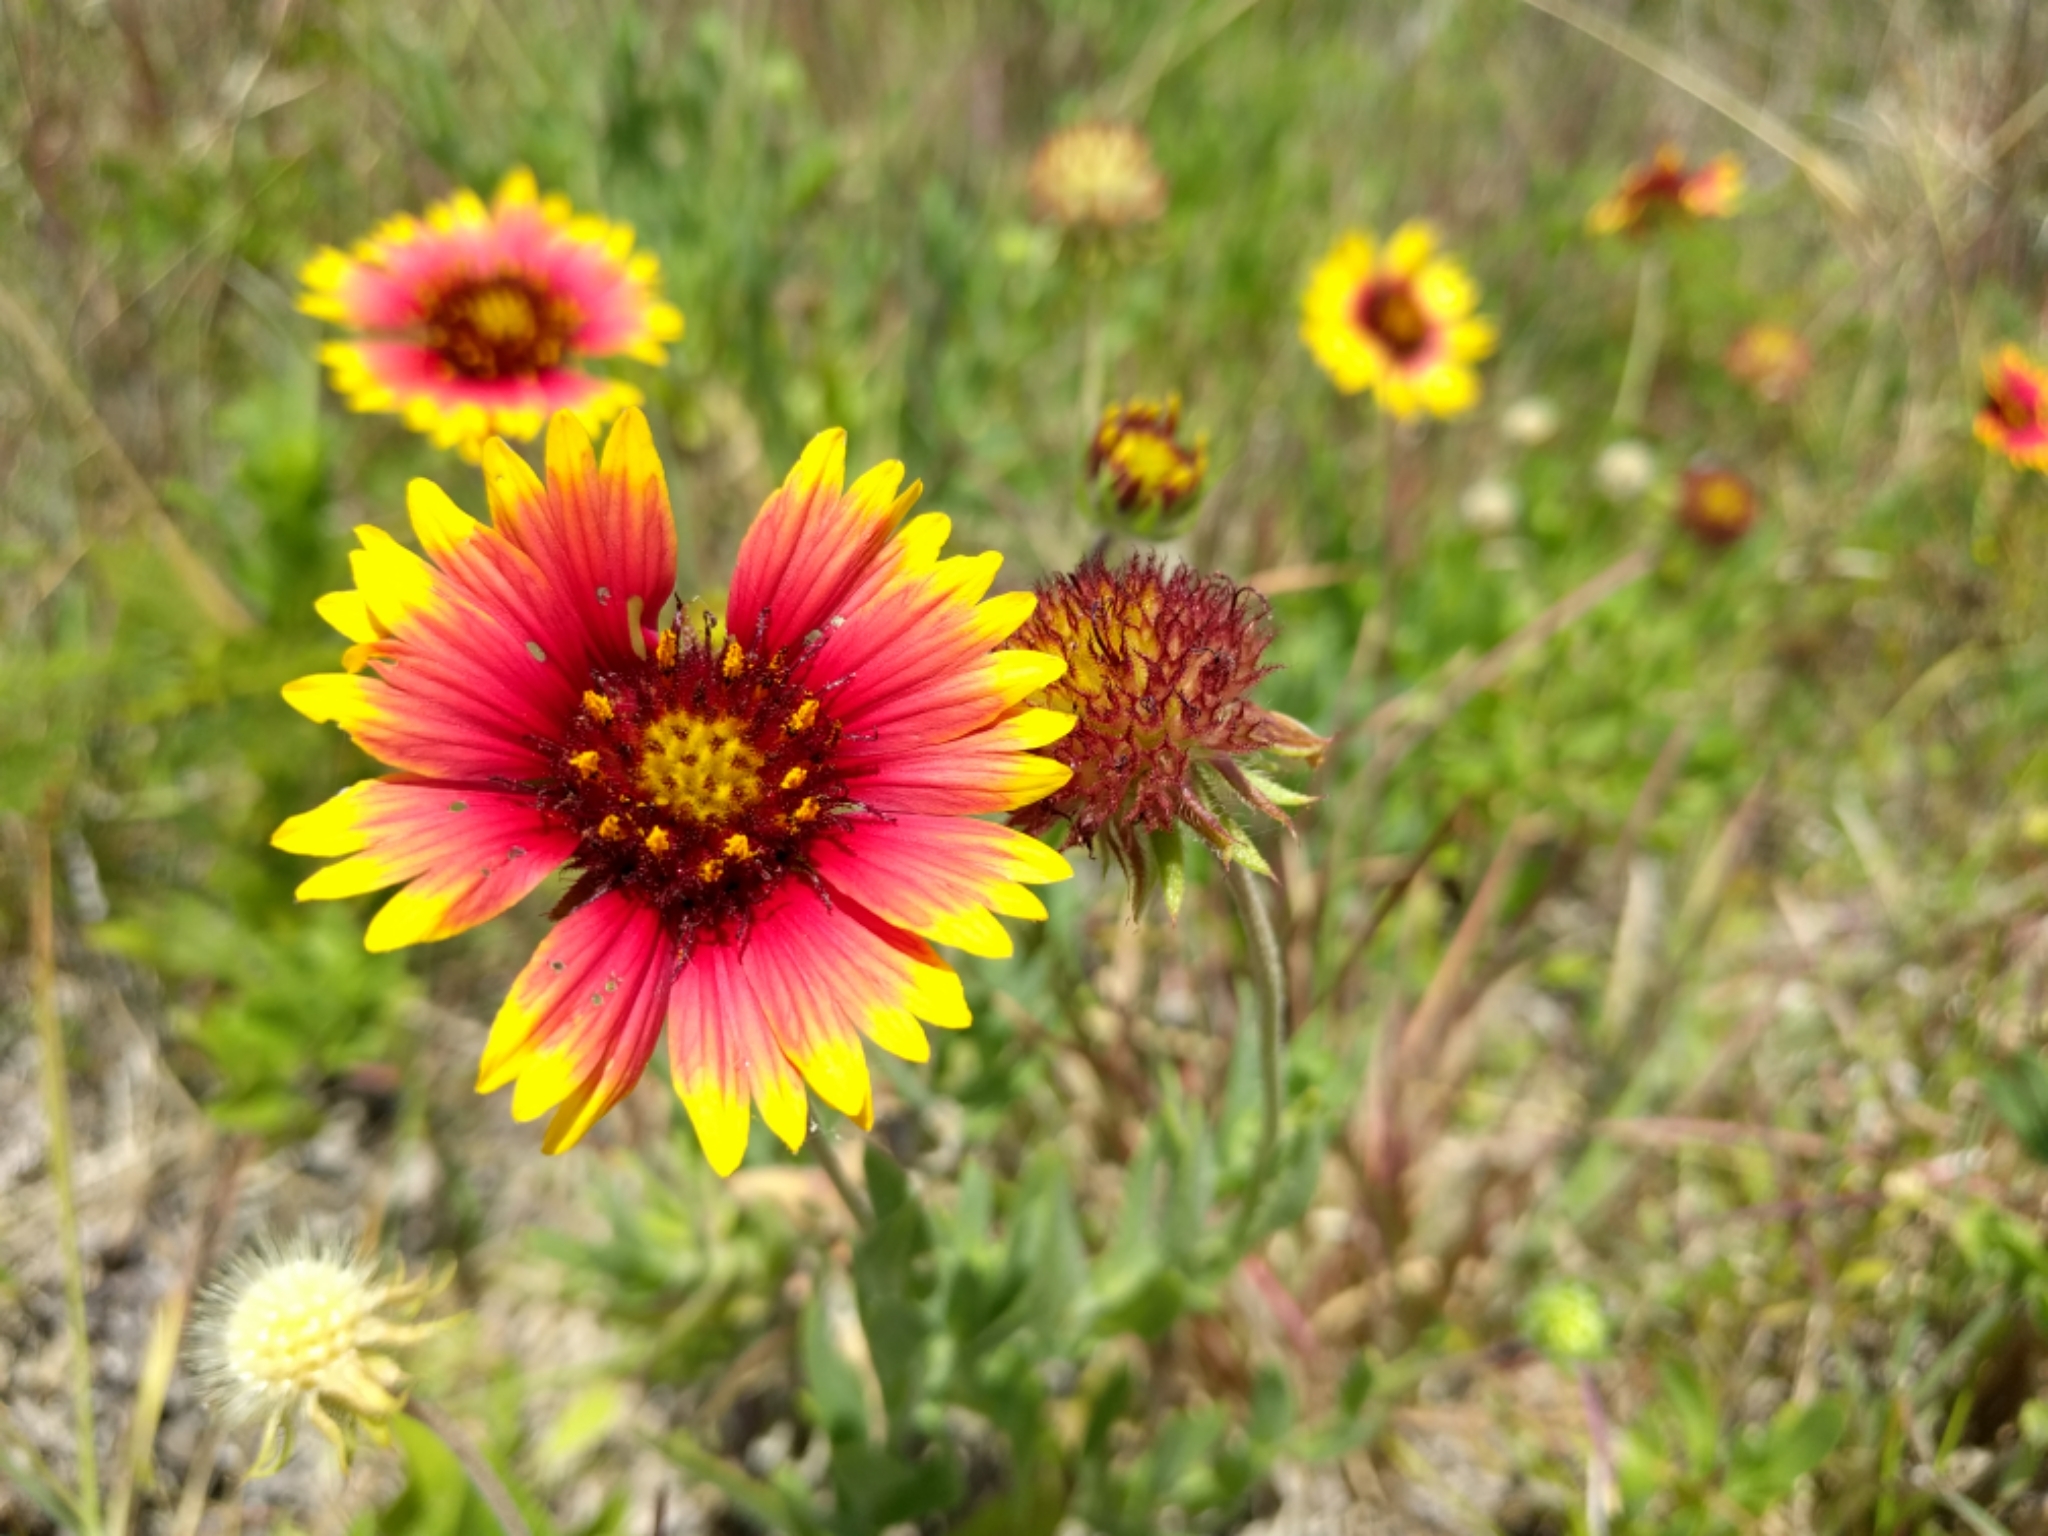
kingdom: Plantae
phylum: Tracheophyta
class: Magnoliopsida
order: Asterales
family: Asteraceae
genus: Gaillardia
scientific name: Gaillardia pulchella
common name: Firewheel
